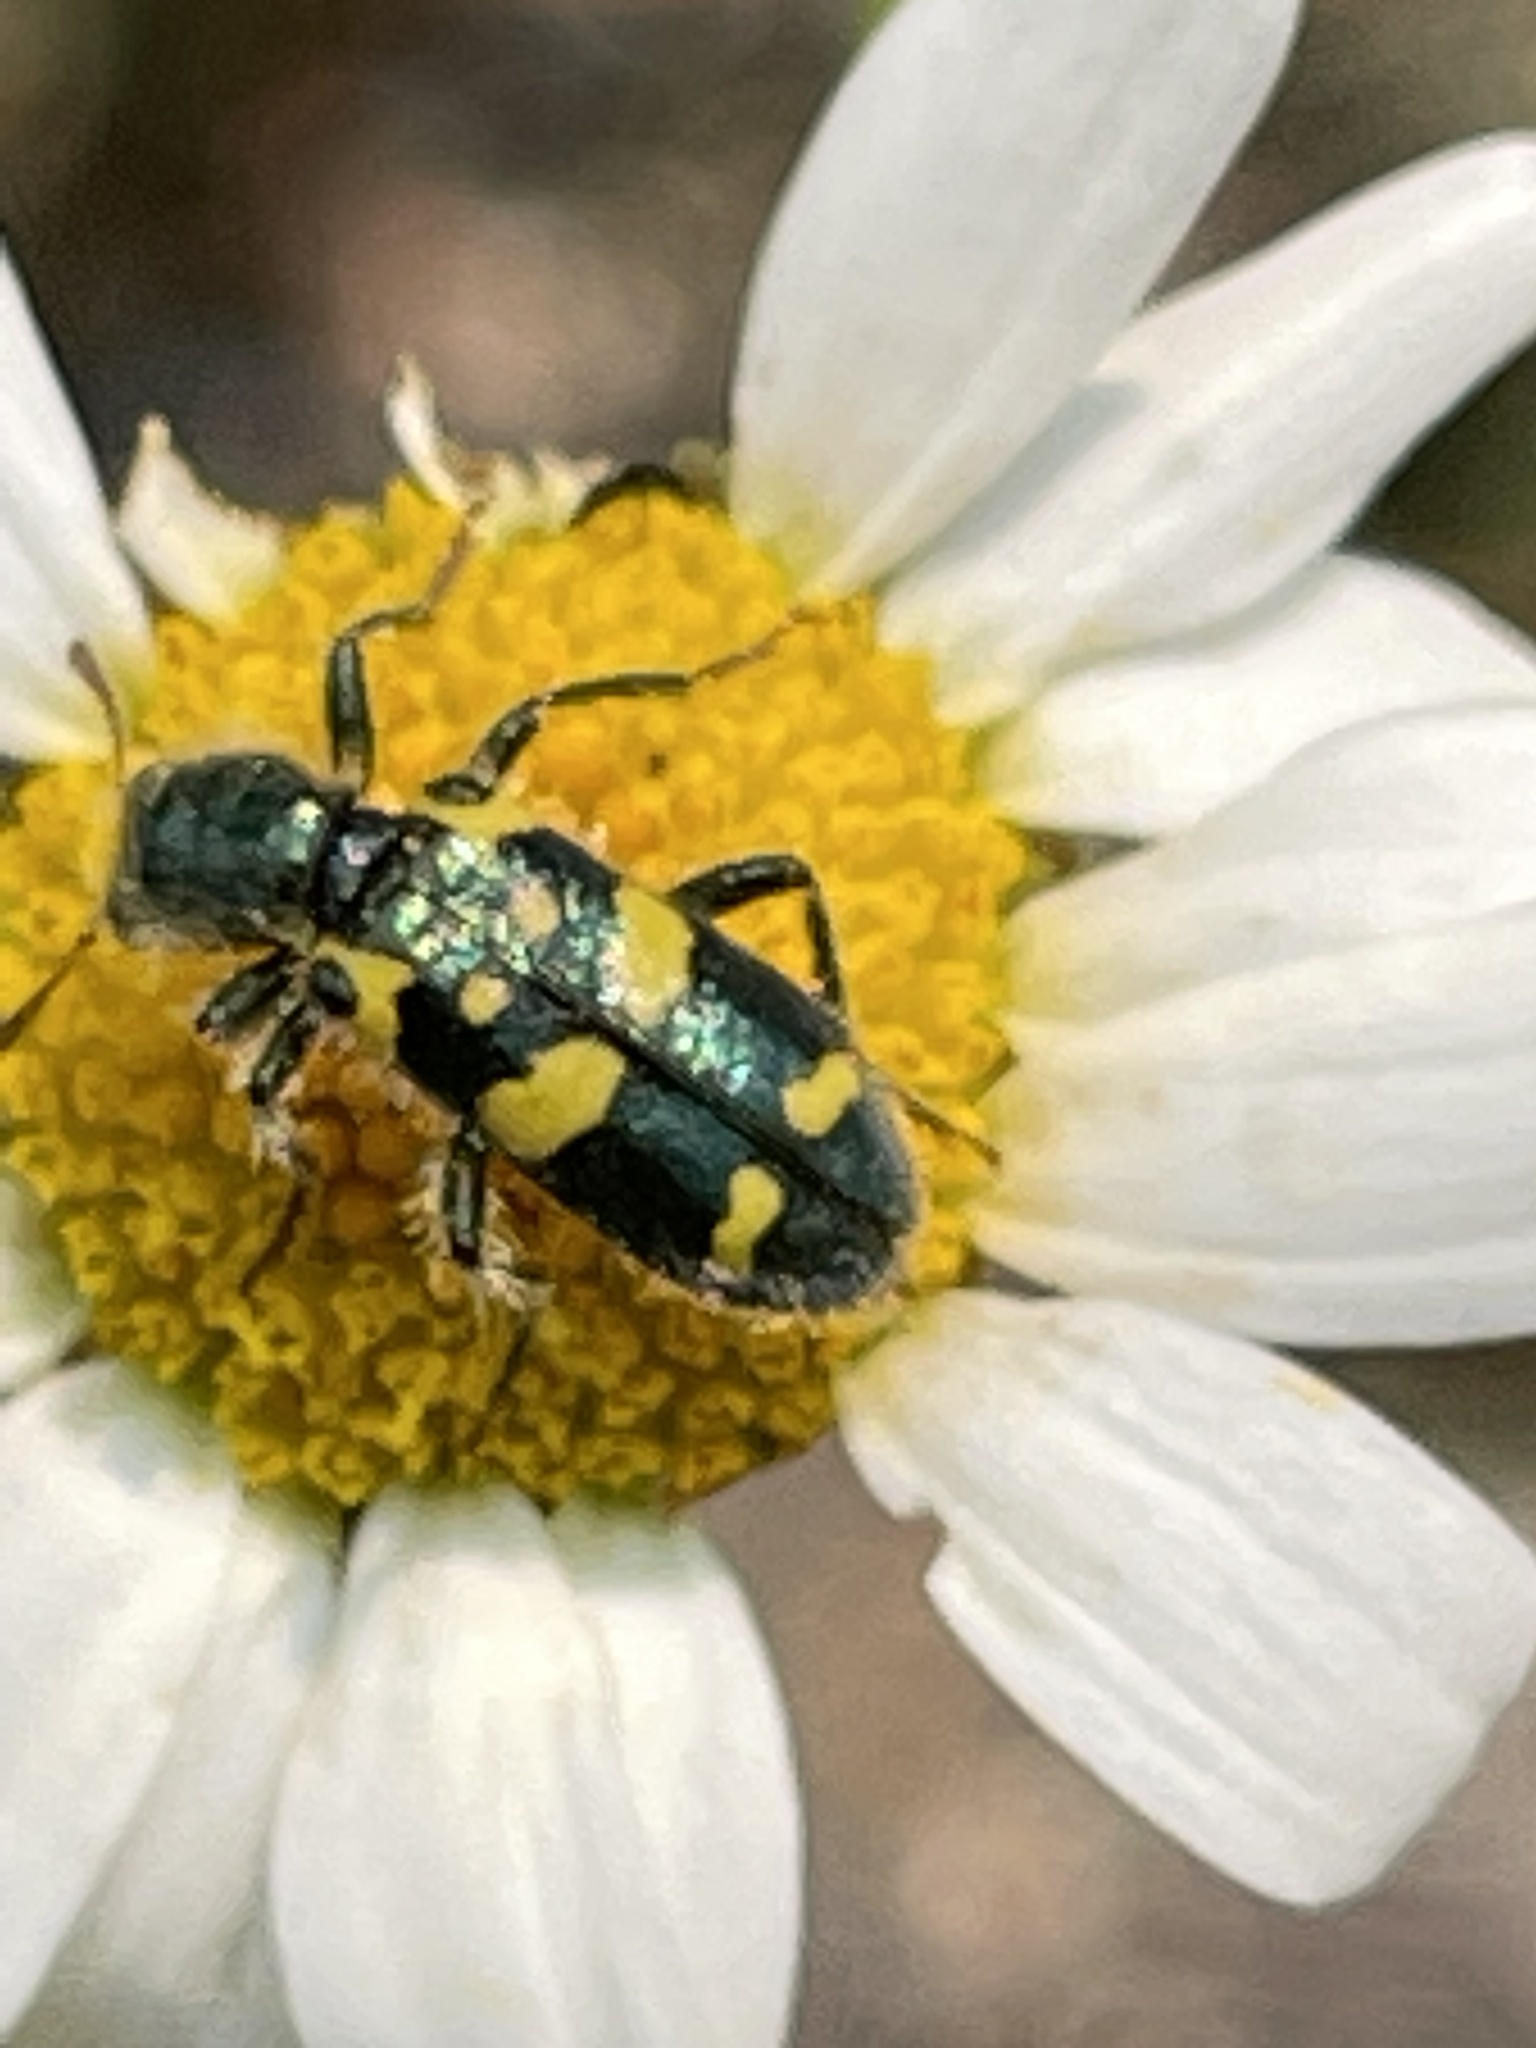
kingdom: Animalia
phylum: Arthropoda
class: Insecta
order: Coleoptera
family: Cleridae
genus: Trichodes
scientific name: Trichodes ornatus
